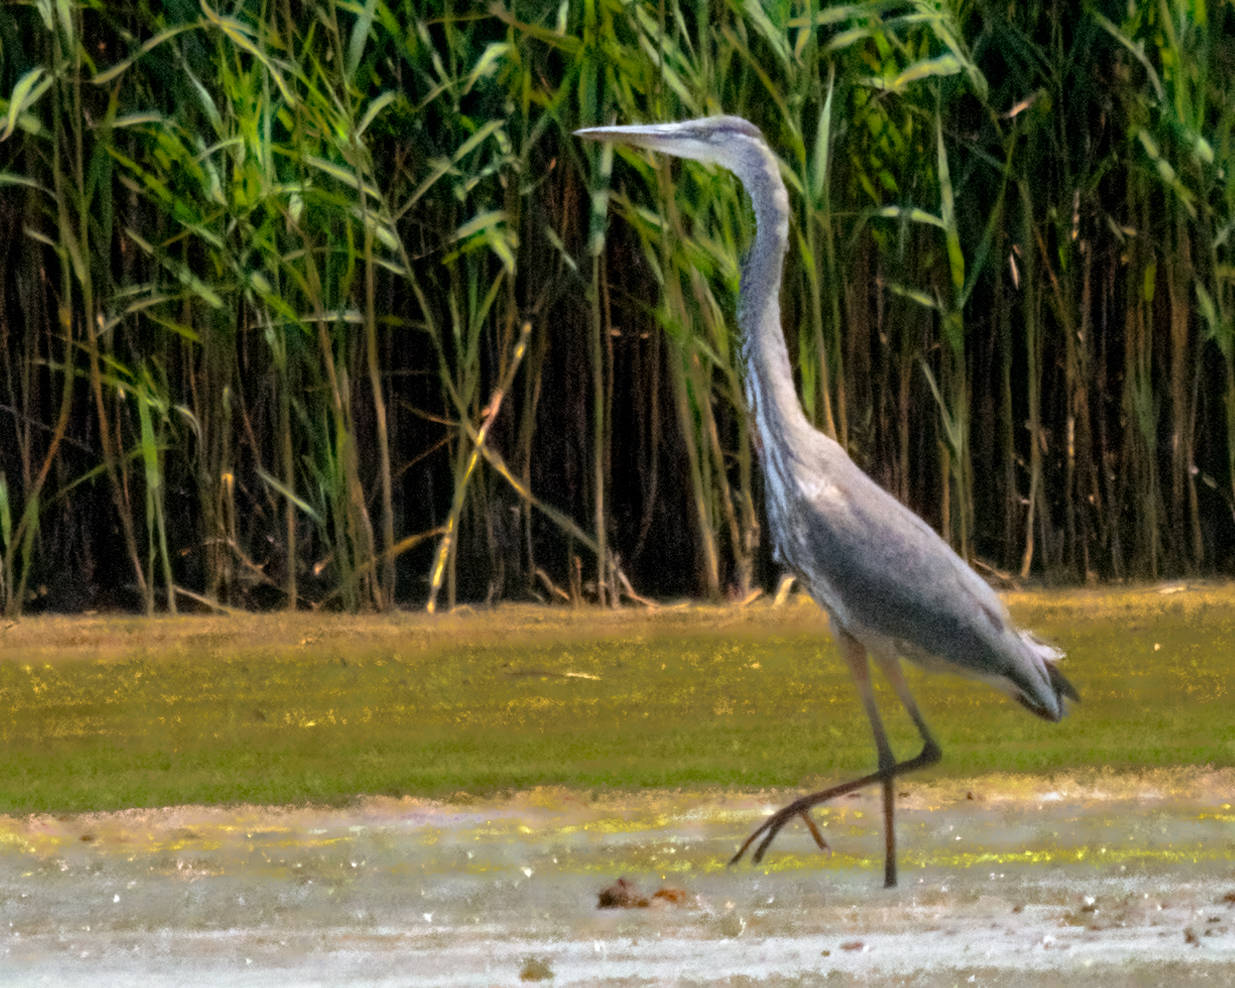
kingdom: Animalia
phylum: Chordata
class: Aves
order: Pelecaniformes
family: Ardeidae
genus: Ardea
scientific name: Ardea herodias
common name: Great blue heron
